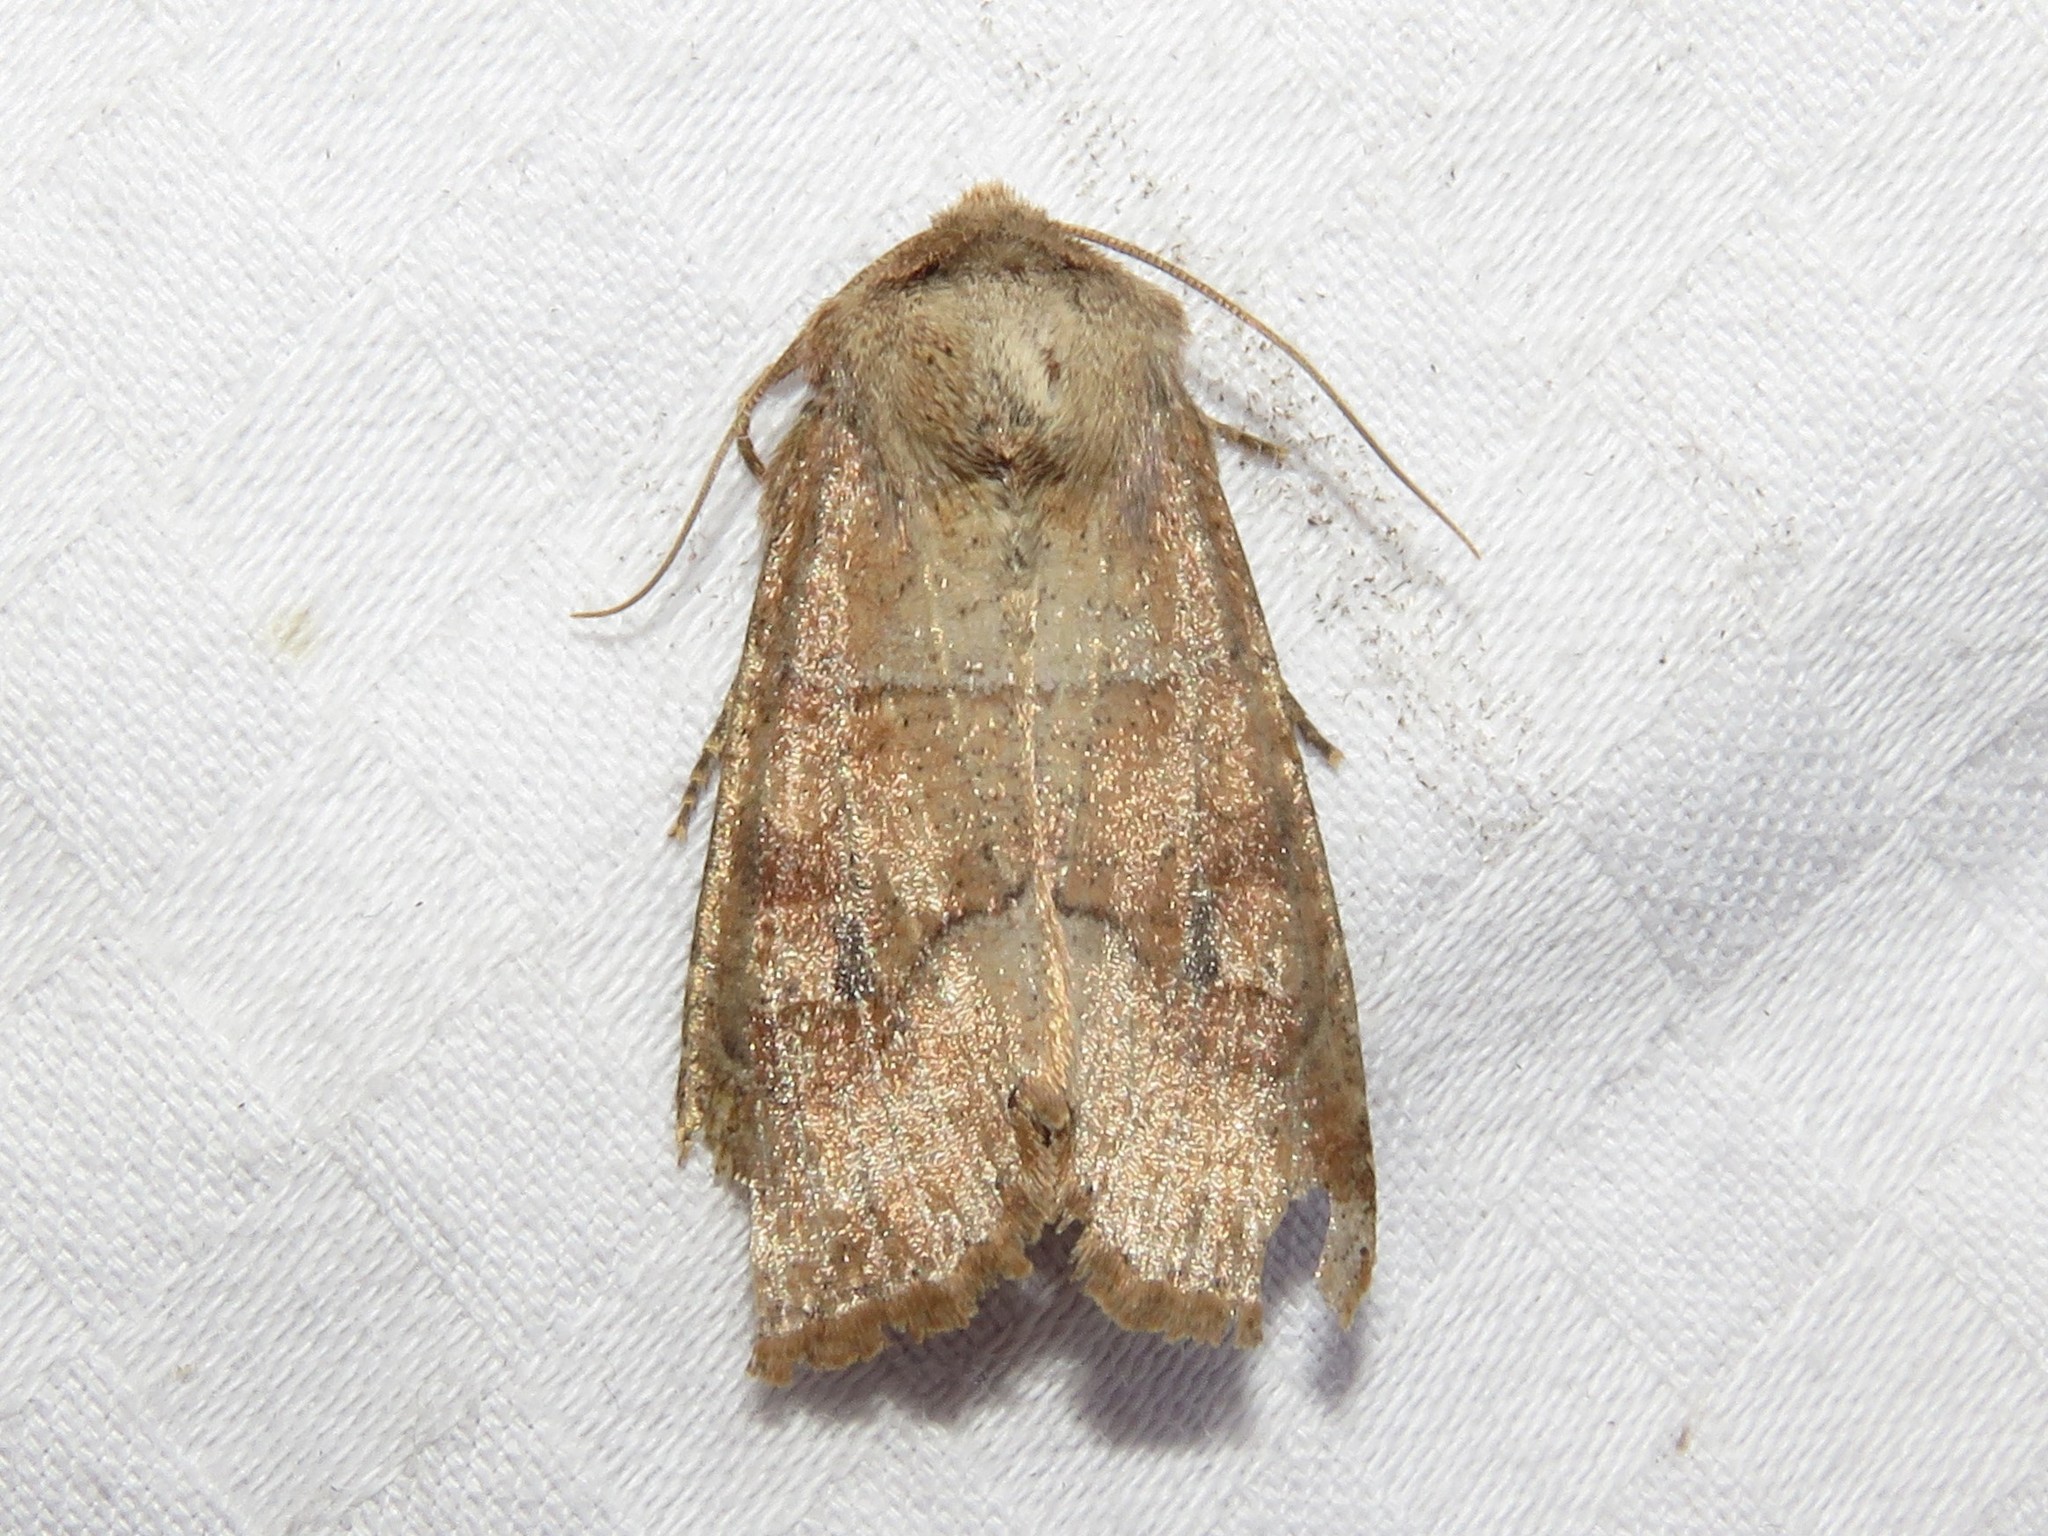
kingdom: Animalia
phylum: Arthropoda
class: Insecta
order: Lepidoptera
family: Noctuidae
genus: Crocigrapha
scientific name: Crocigrapha normani
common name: Norman's quaker
